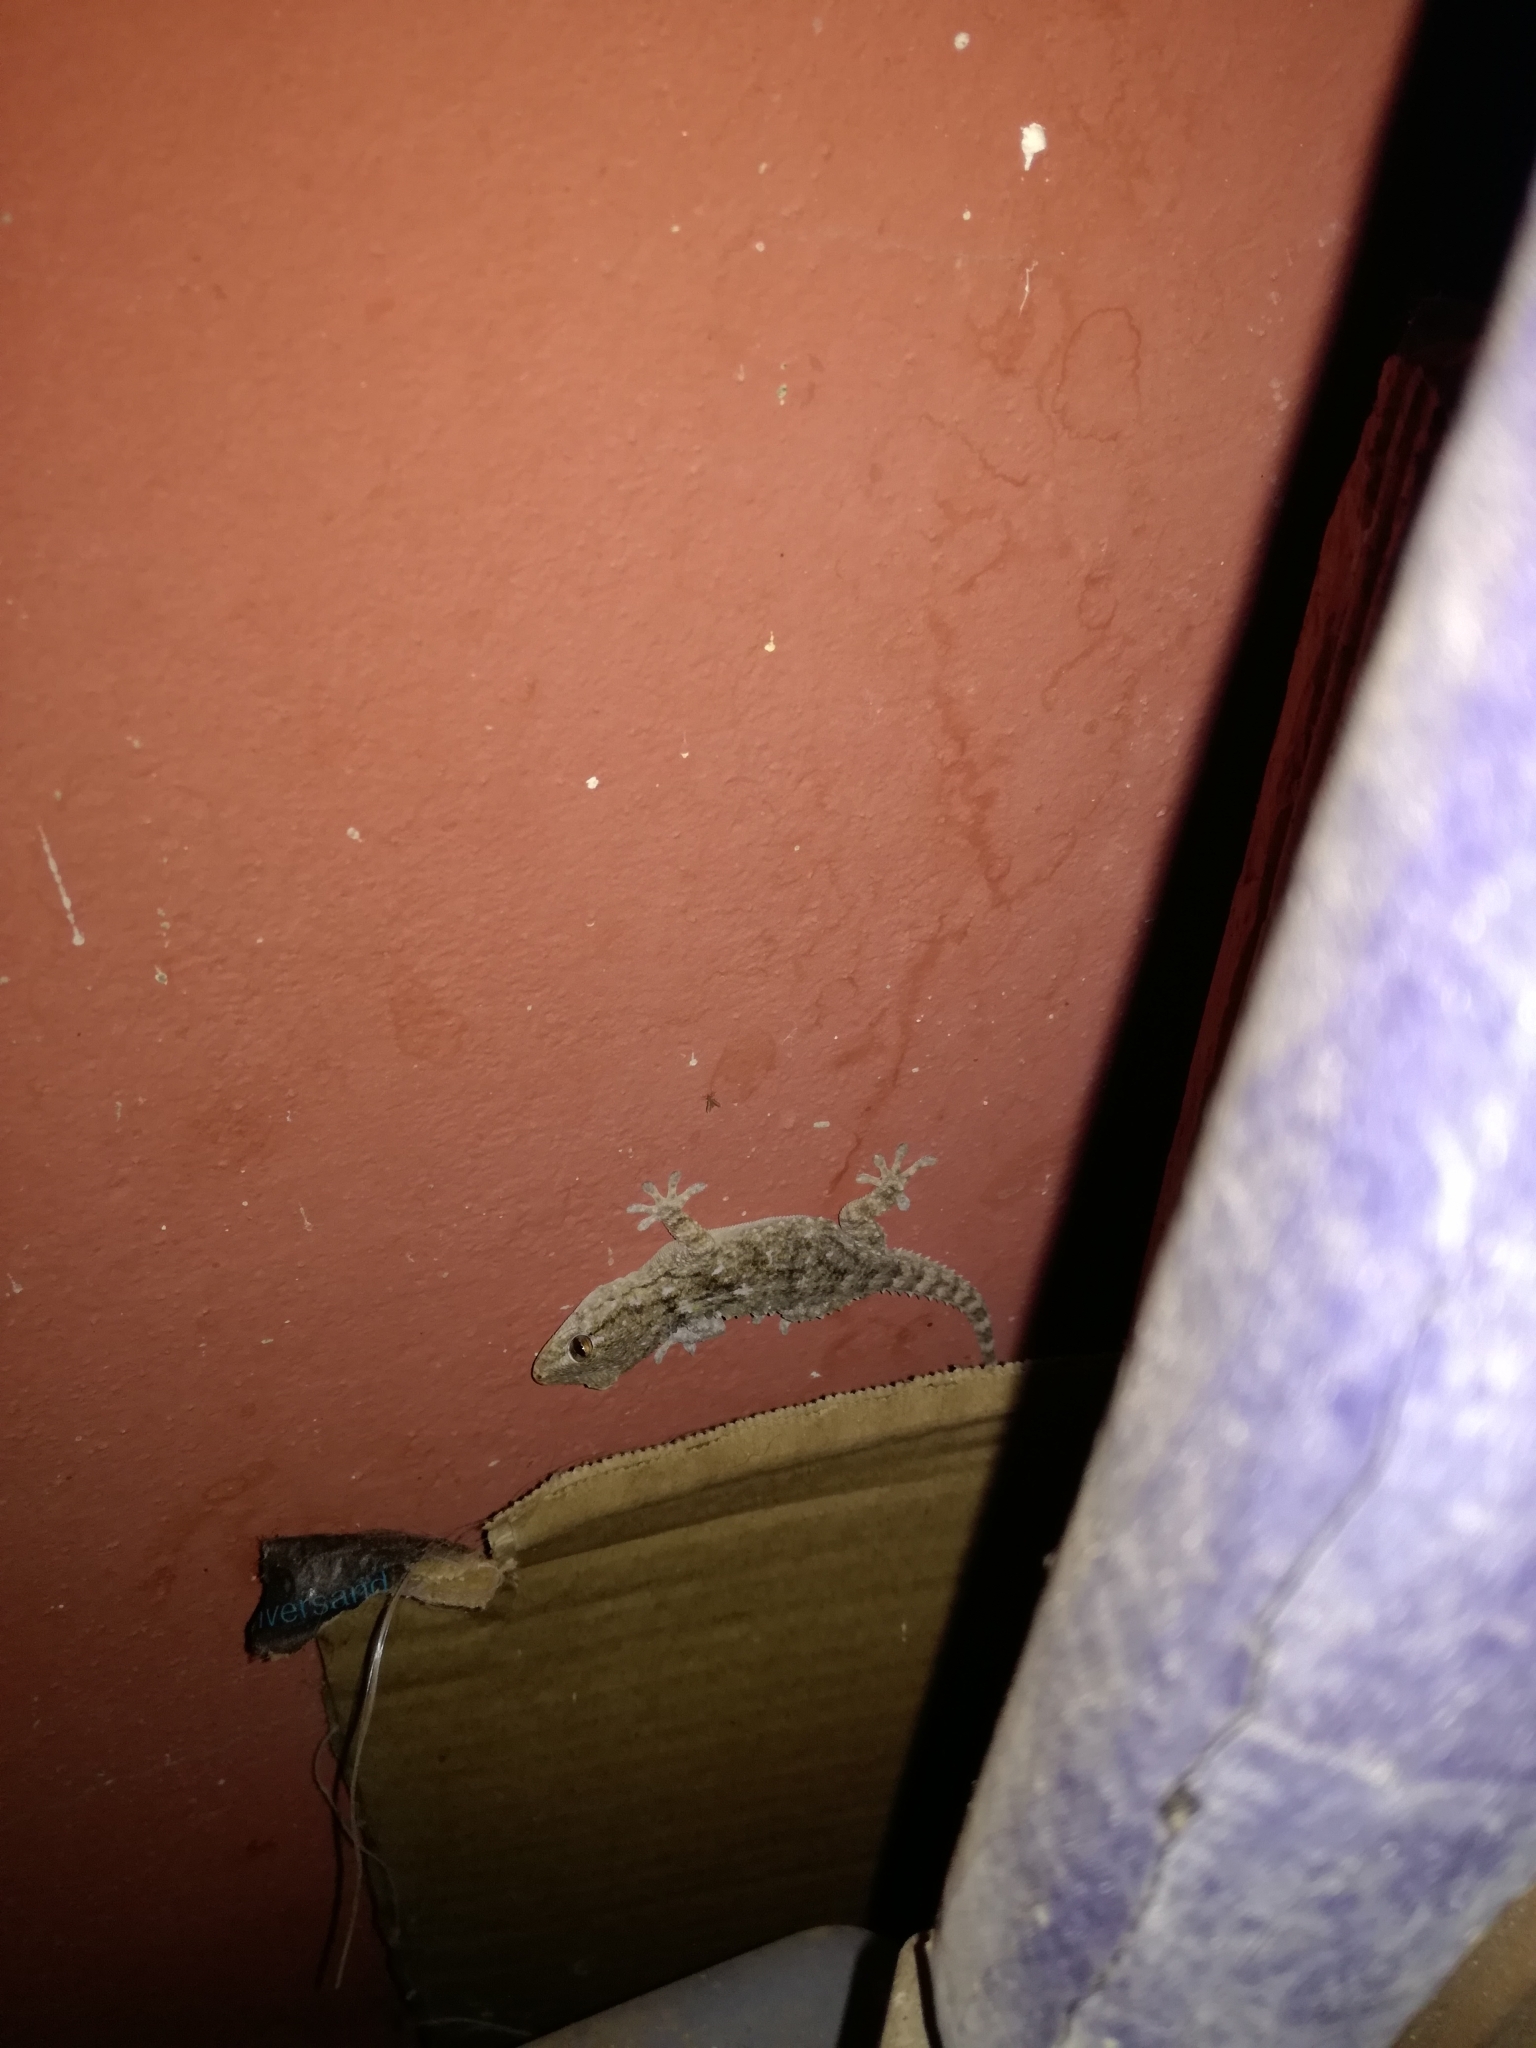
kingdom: Animalia
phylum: Chordata
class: Squamata
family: Phyllodactylidae
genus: Tarentola
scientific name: Tarentola mauritanica
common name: Moorish gecko
